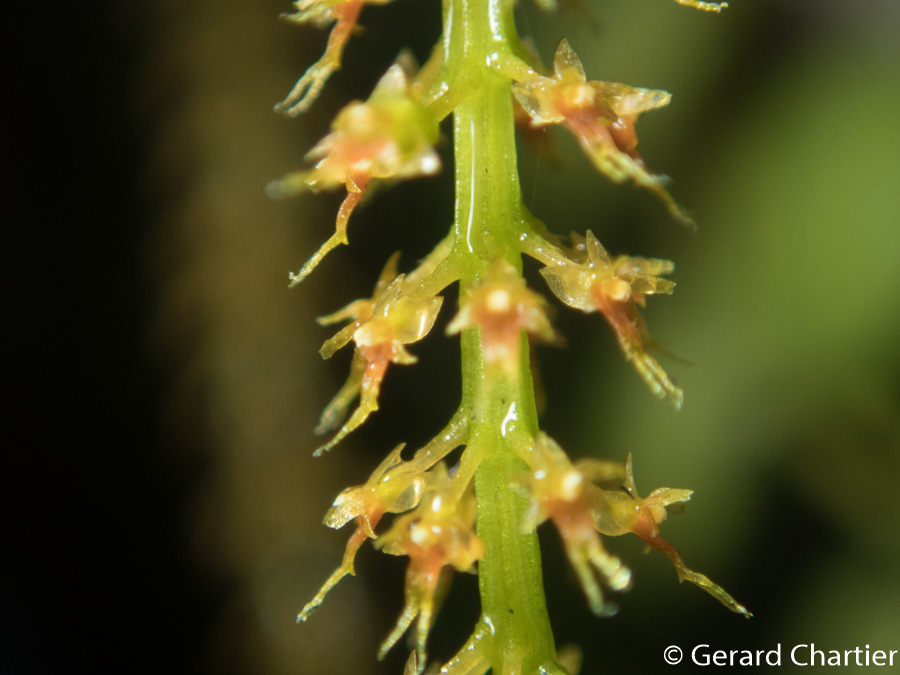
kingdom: Plantae
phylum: Tracheophyta
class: Liliopsida
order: Asparagales
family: Orchidaceae
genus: Oberonia
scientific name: Oberonia falcata
